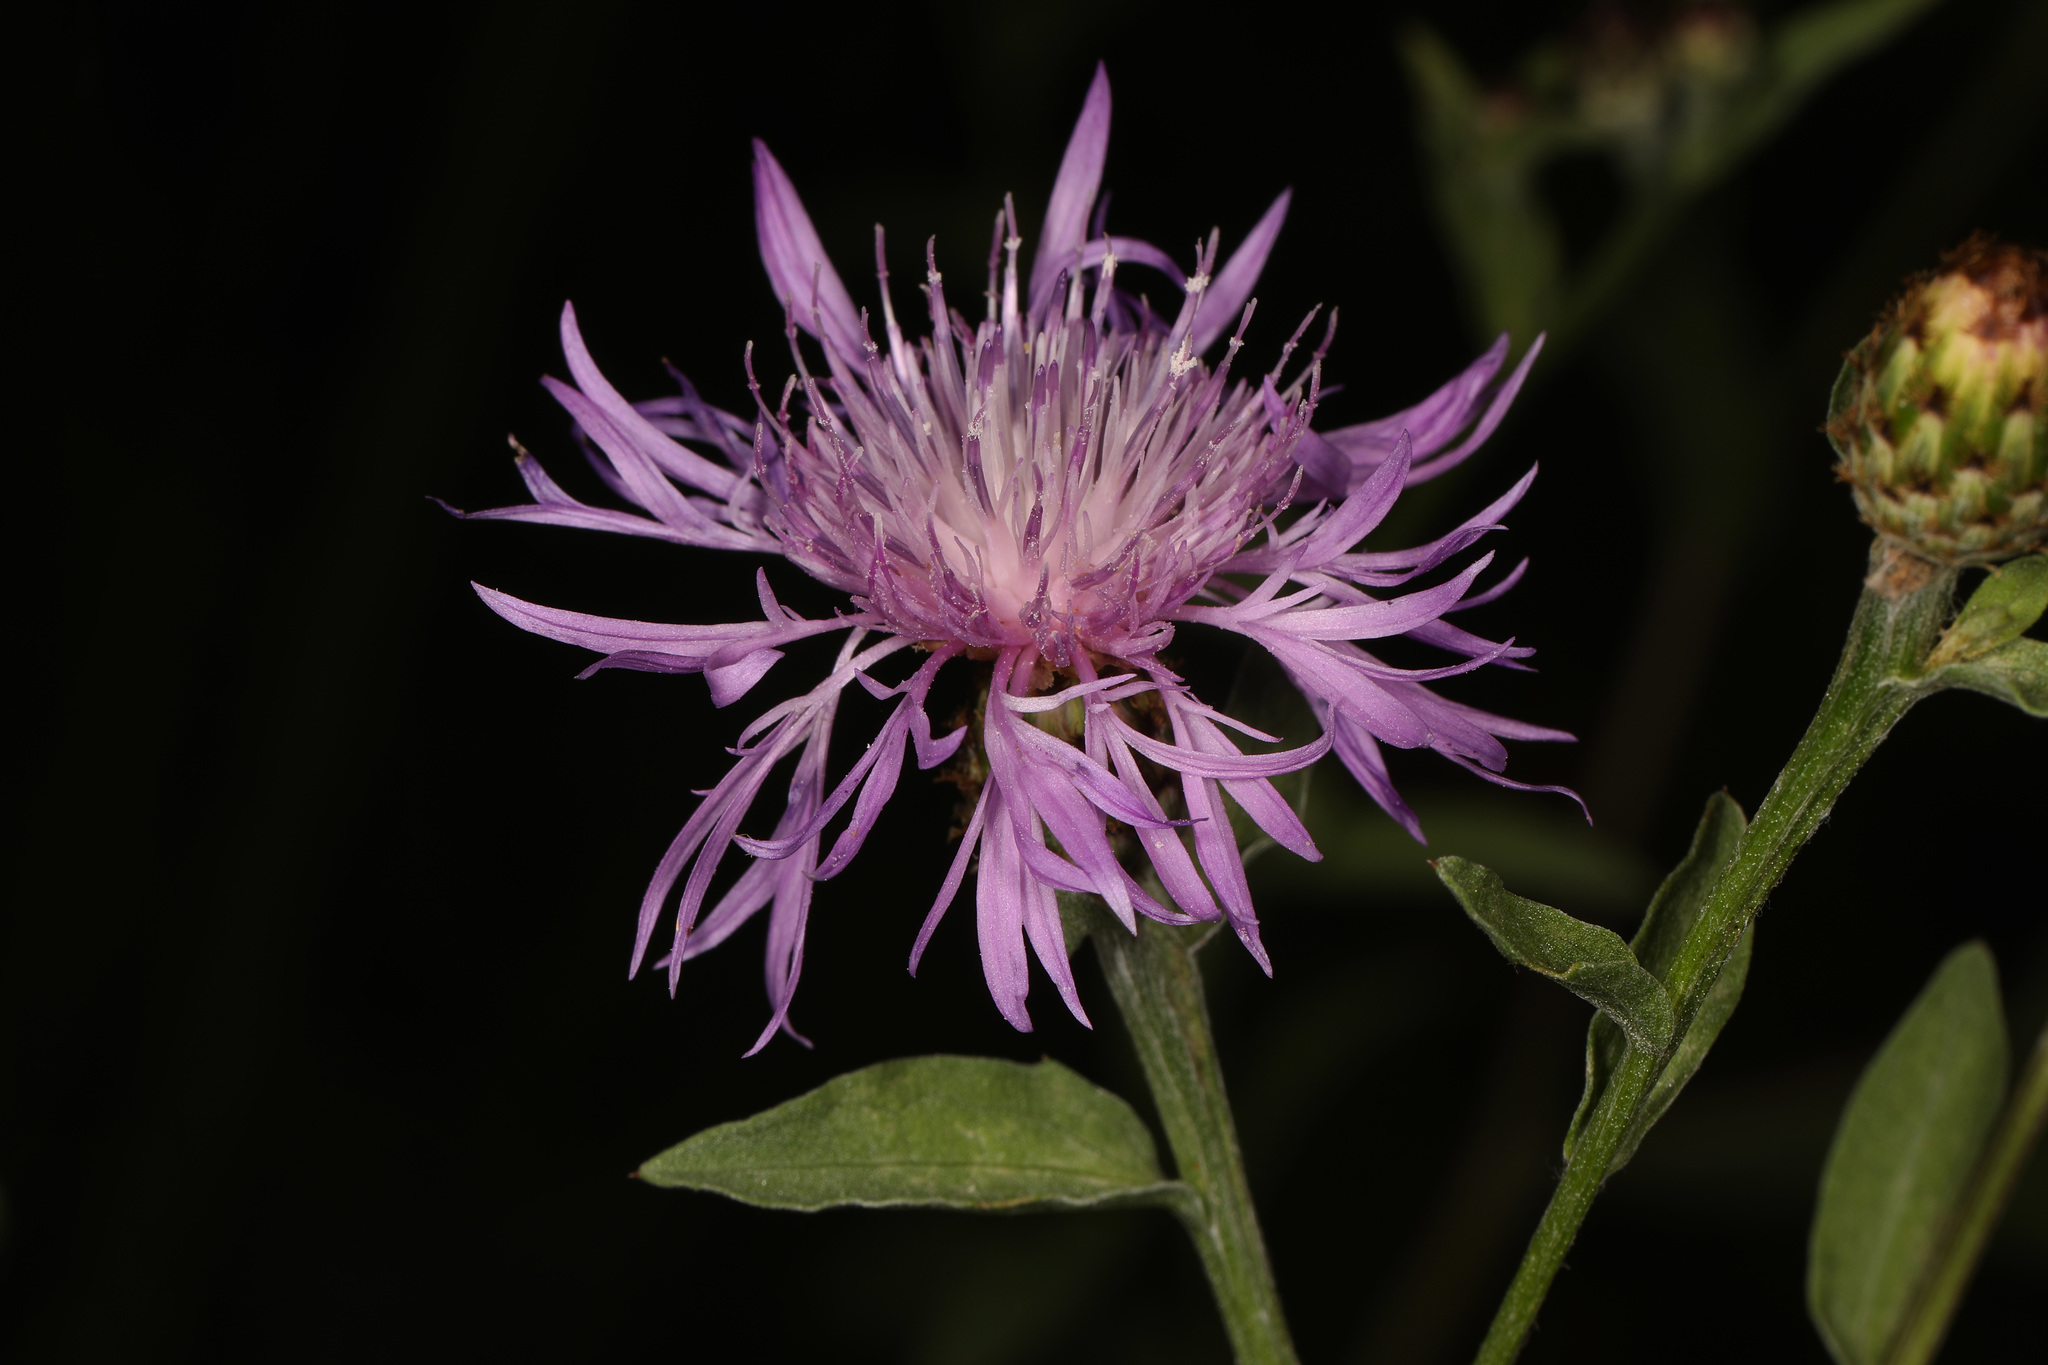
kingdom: Plantae
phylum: Tracheophyta
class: Magnoliopsida
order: Asterales
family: Asteraceae
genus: Centaurea
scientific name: Centaurea nigrescens
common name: Tyrol knapweed
